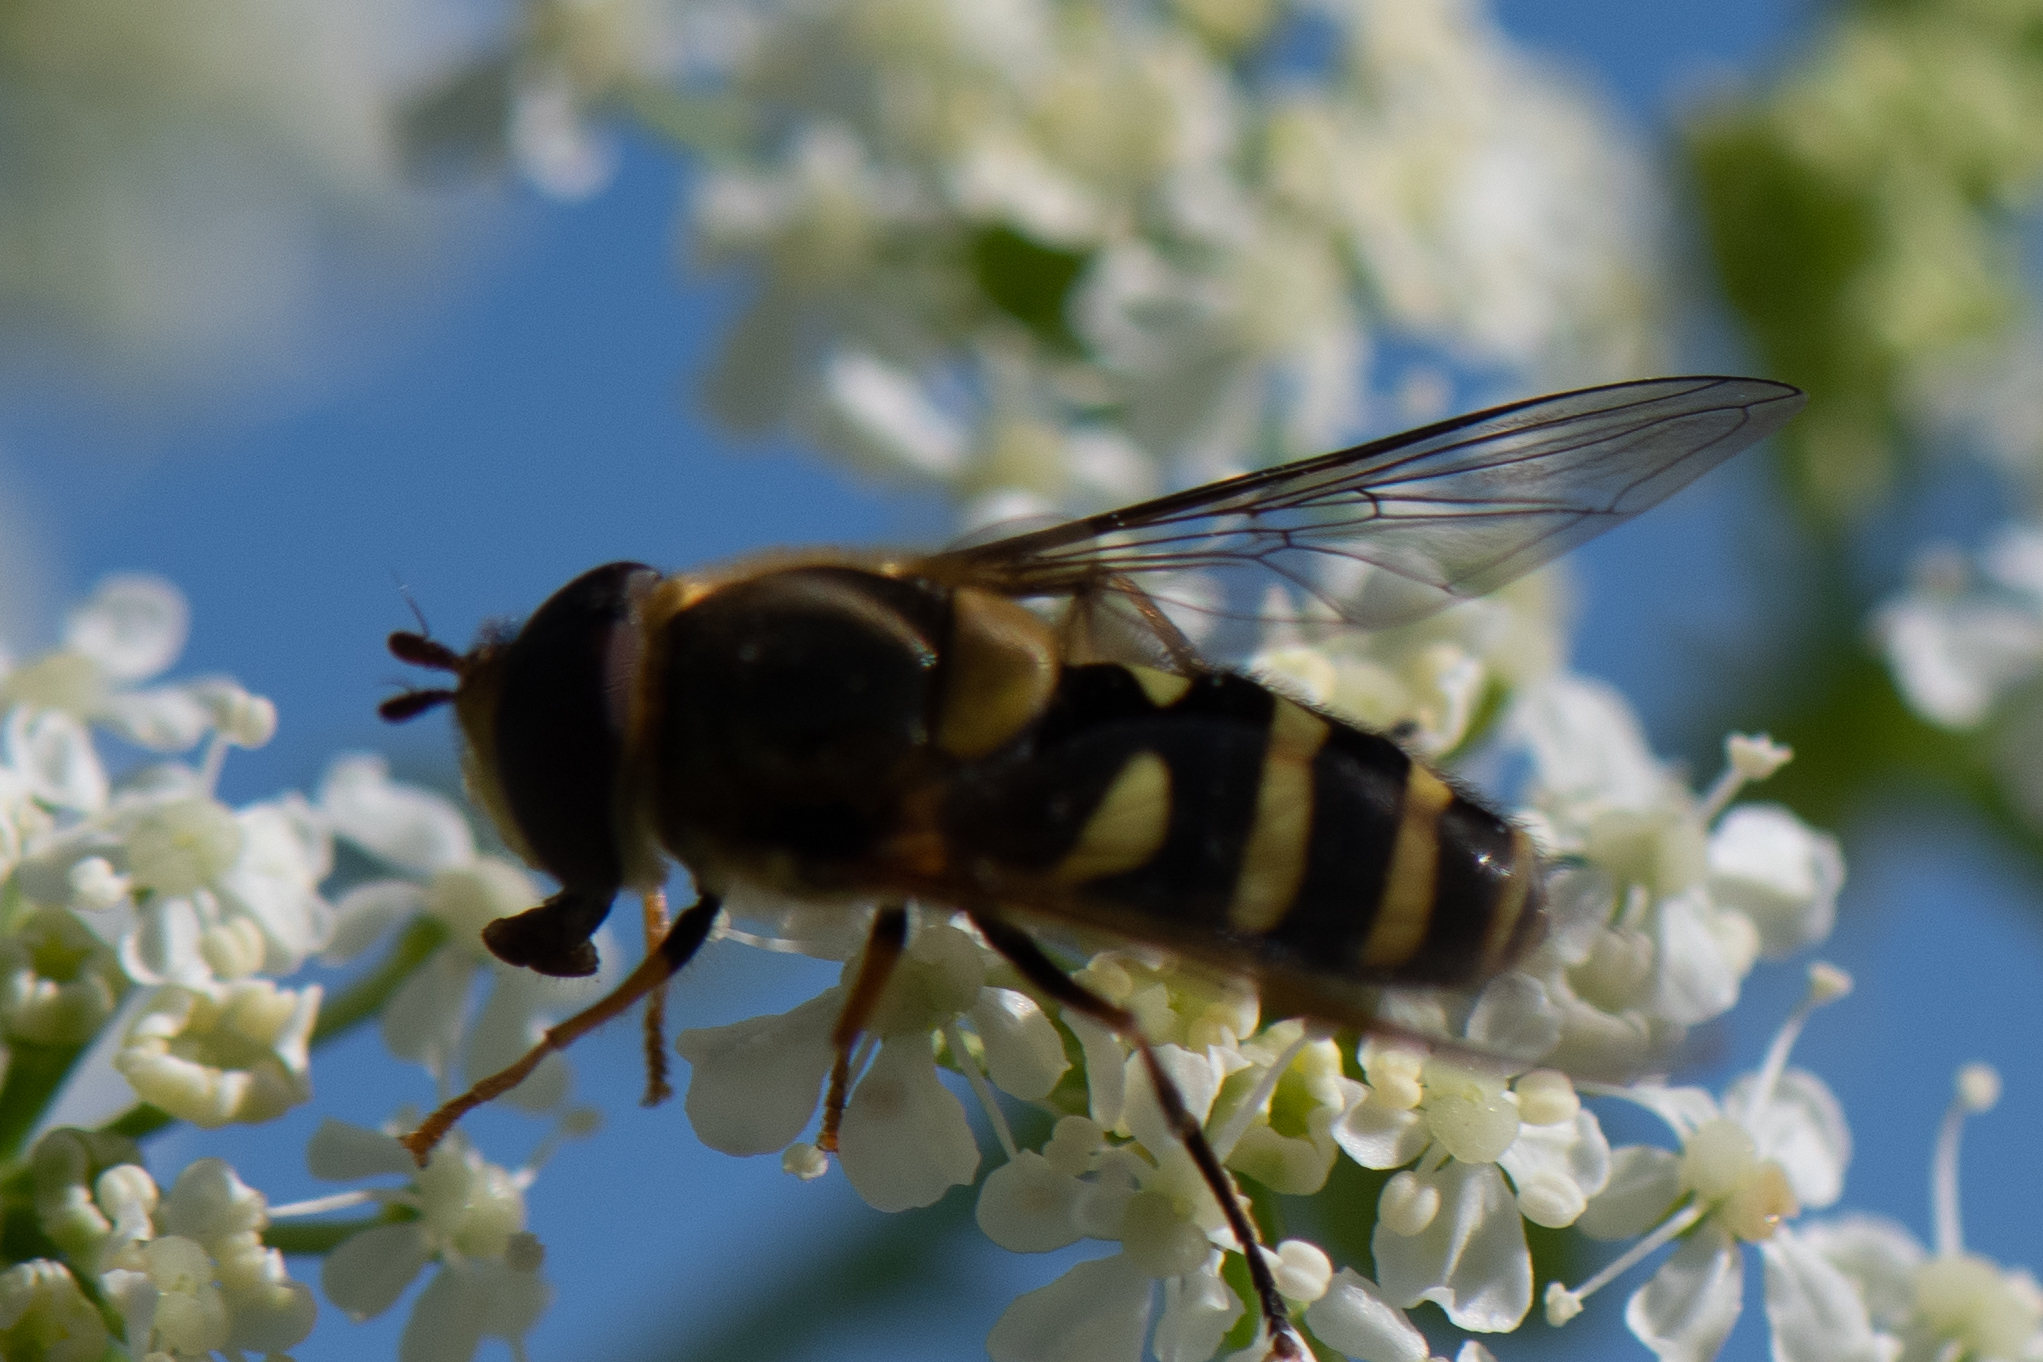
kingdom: Animalia
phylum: Arthropoda
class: Insecta
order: Diptera
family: Syrphidae
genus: Syrphus
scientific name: Syrphus opinator
